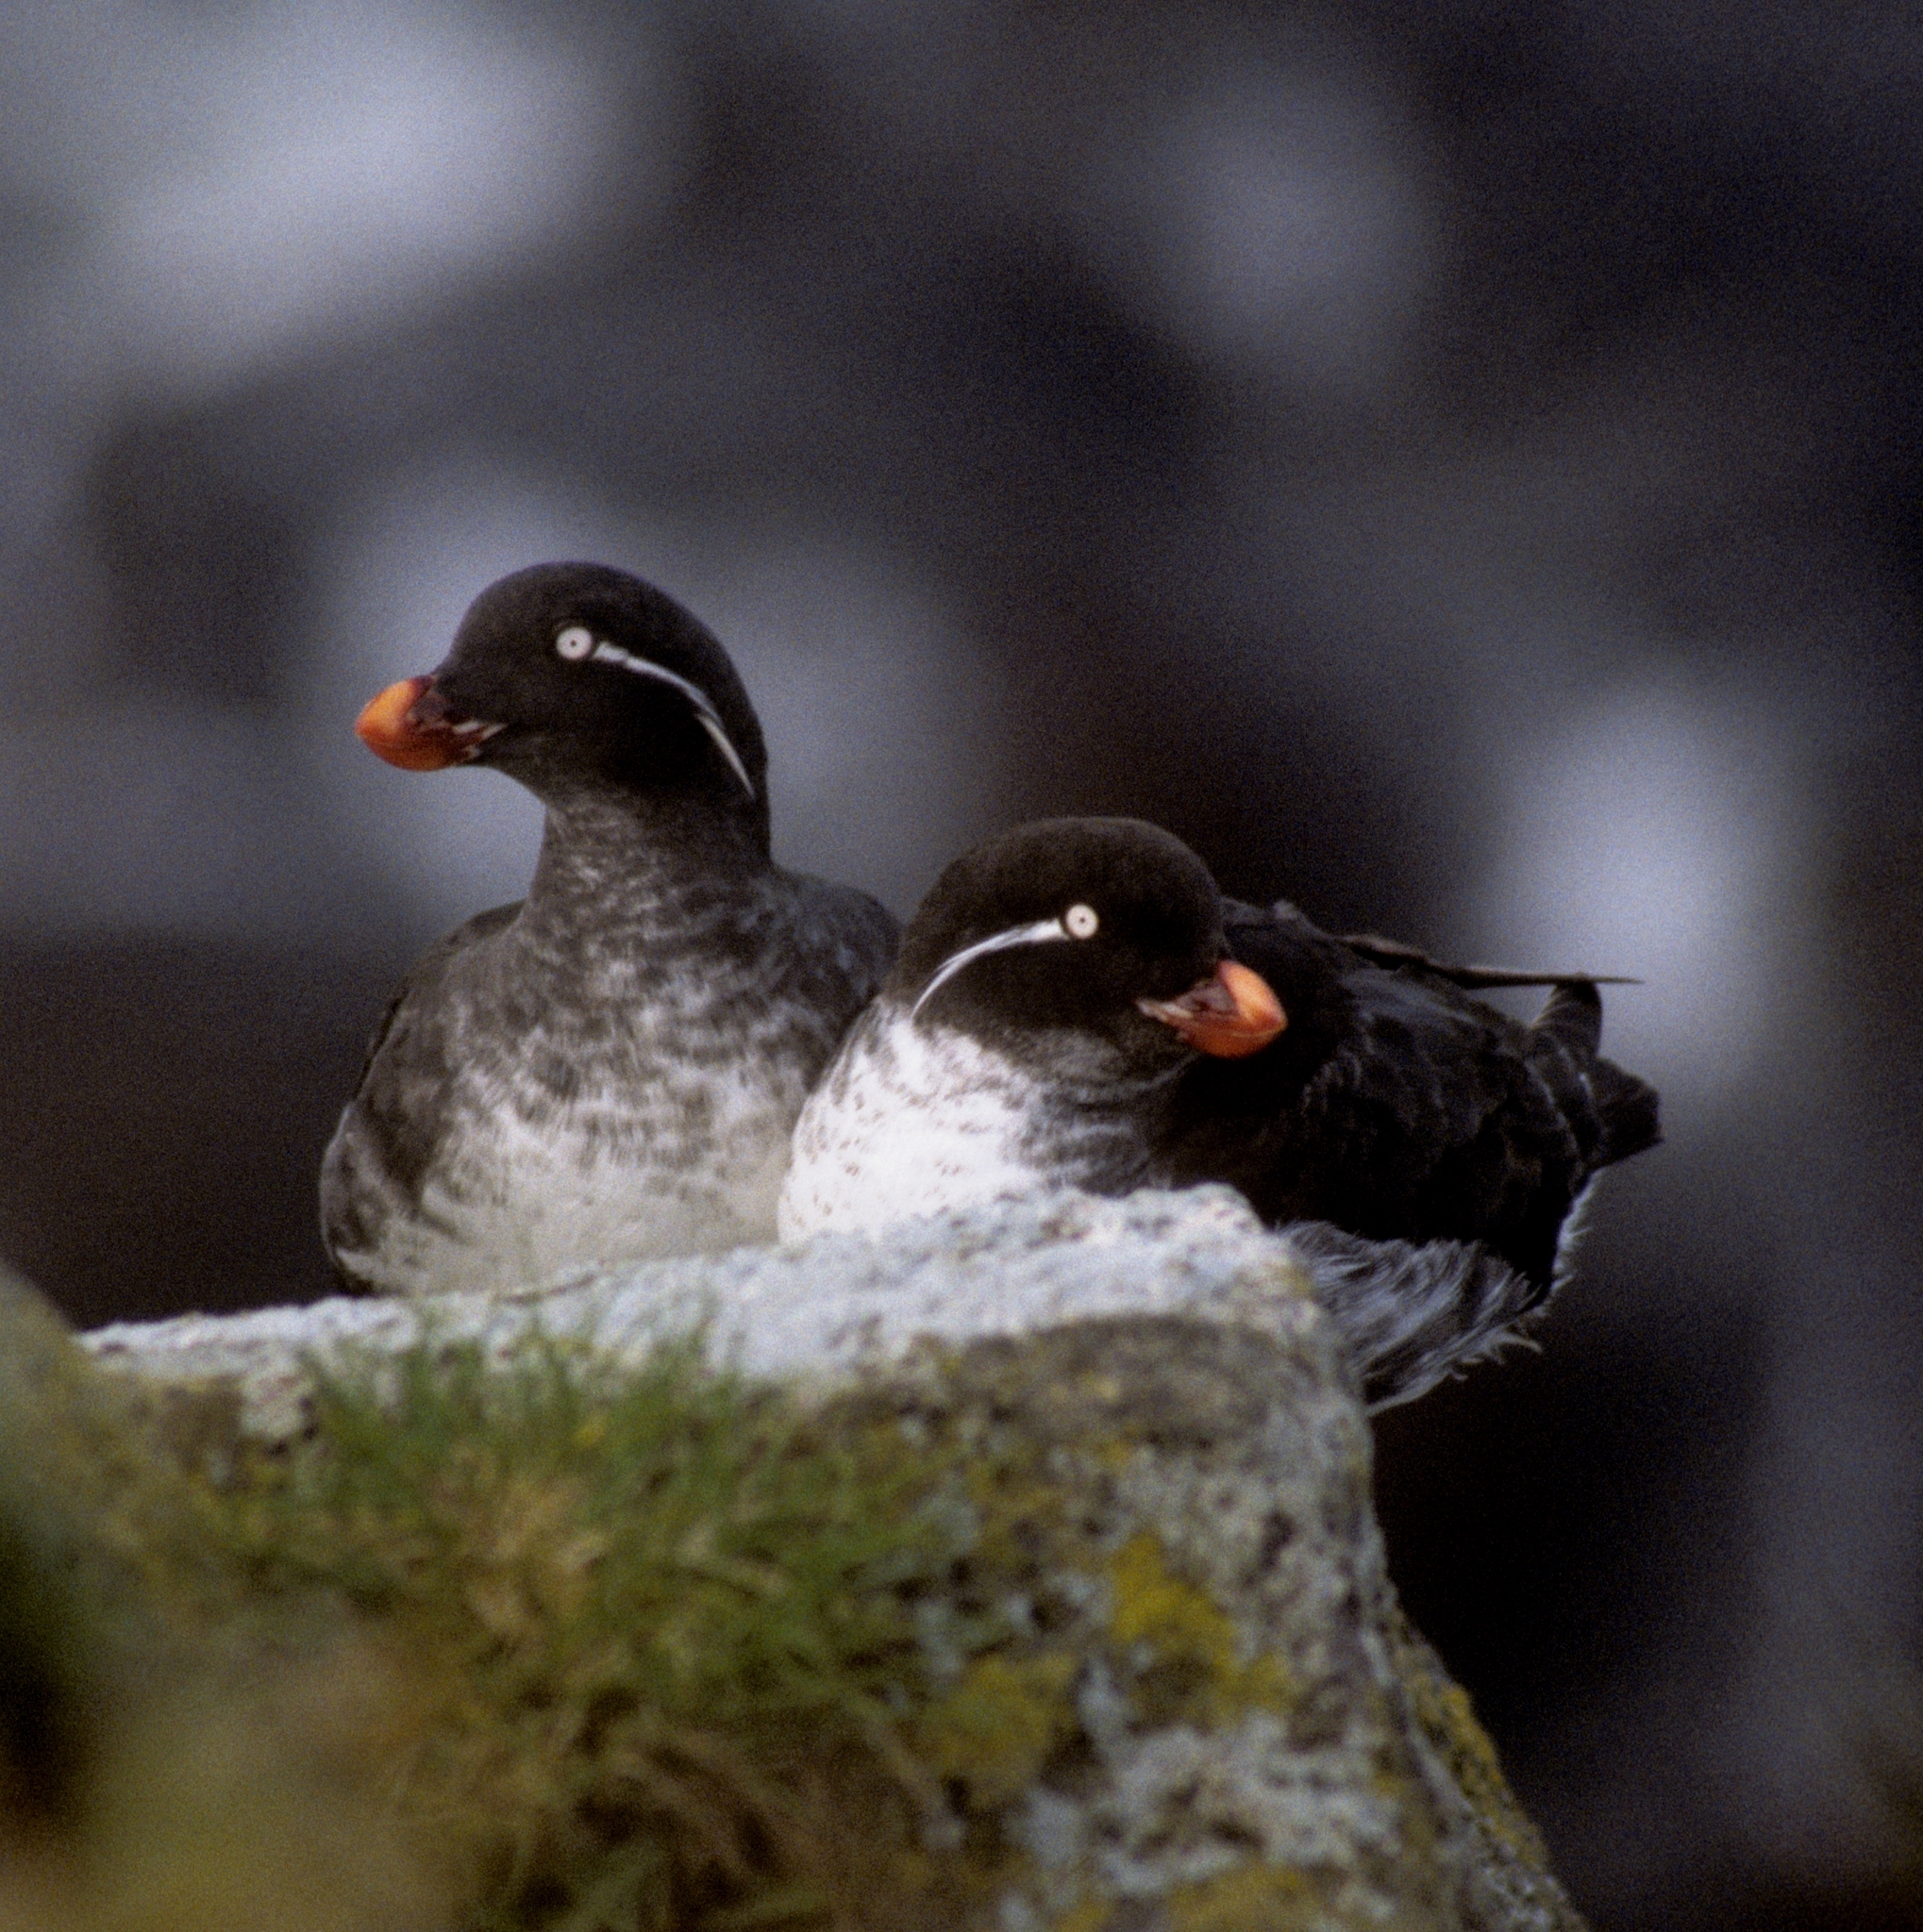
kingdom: Animalia
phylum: Chordata
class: Aves
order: Charadriiformes
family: Alcidae
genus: Aethia
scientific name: Aethia psittacula
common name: Parakeet auklet
